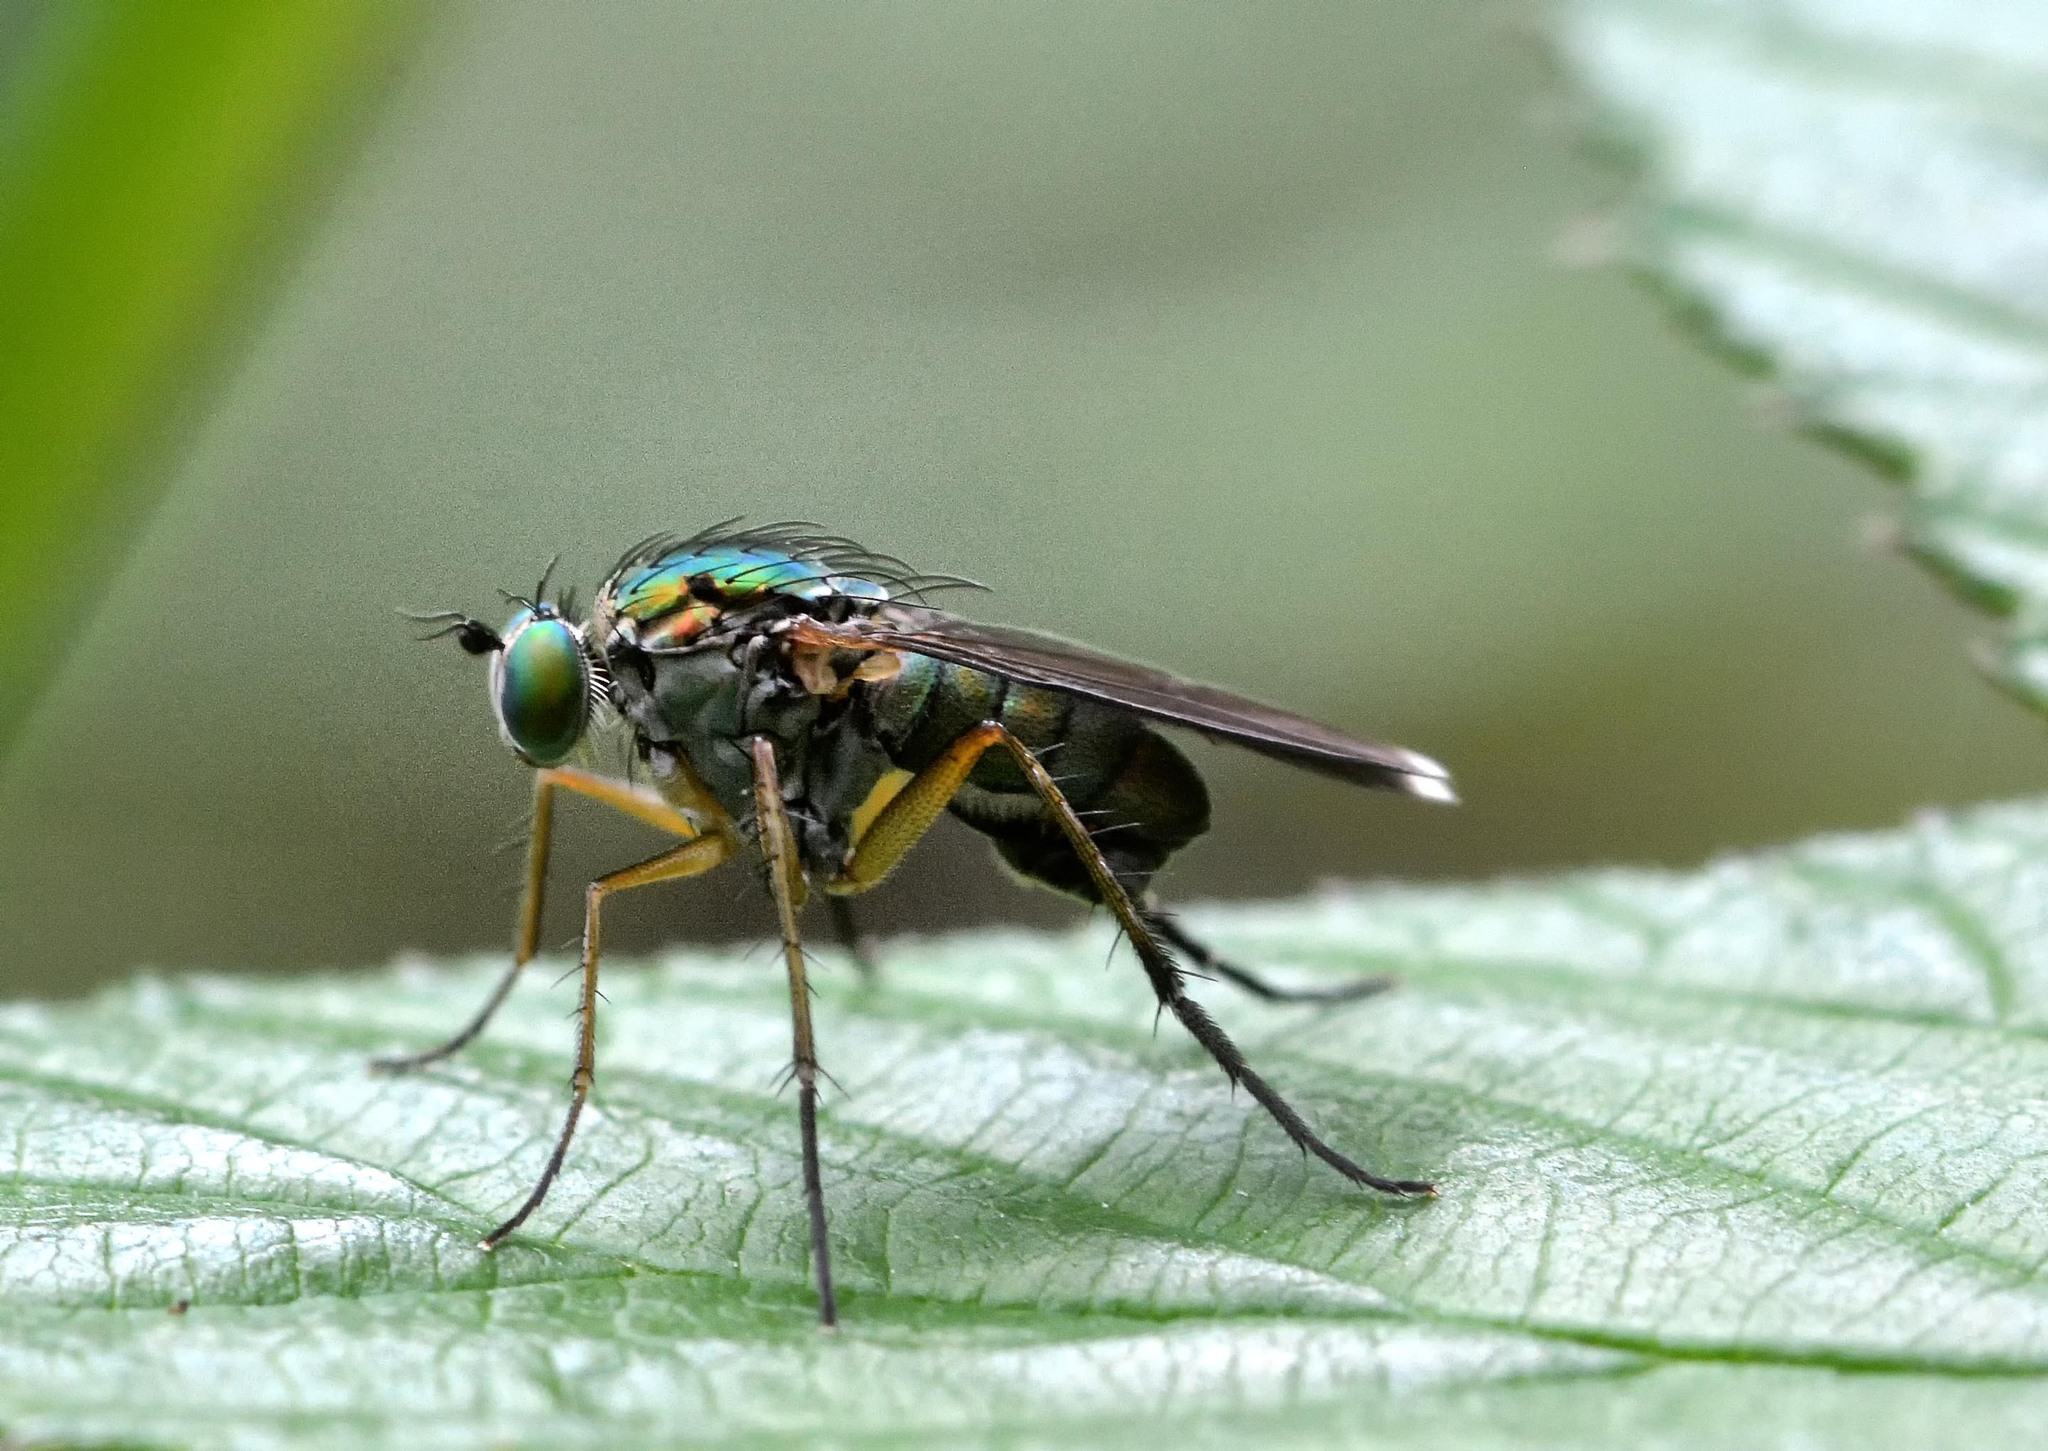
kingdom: Animalia
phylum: Arthropoda
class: Insecta
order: Diptera
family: Dolichopodidae
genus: Poecilobothrus
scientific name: Poecilobothrus nobilitatus
